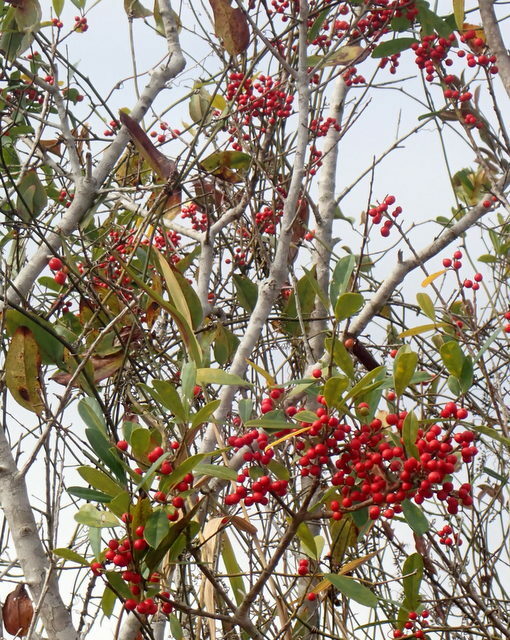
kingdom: Plantae
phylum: Tracheophyta
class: Magnoliopsida
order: Aquifoliales
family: Aquifoliaceae
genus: Ilex
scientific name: Ilex cassine
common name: Dahoon
